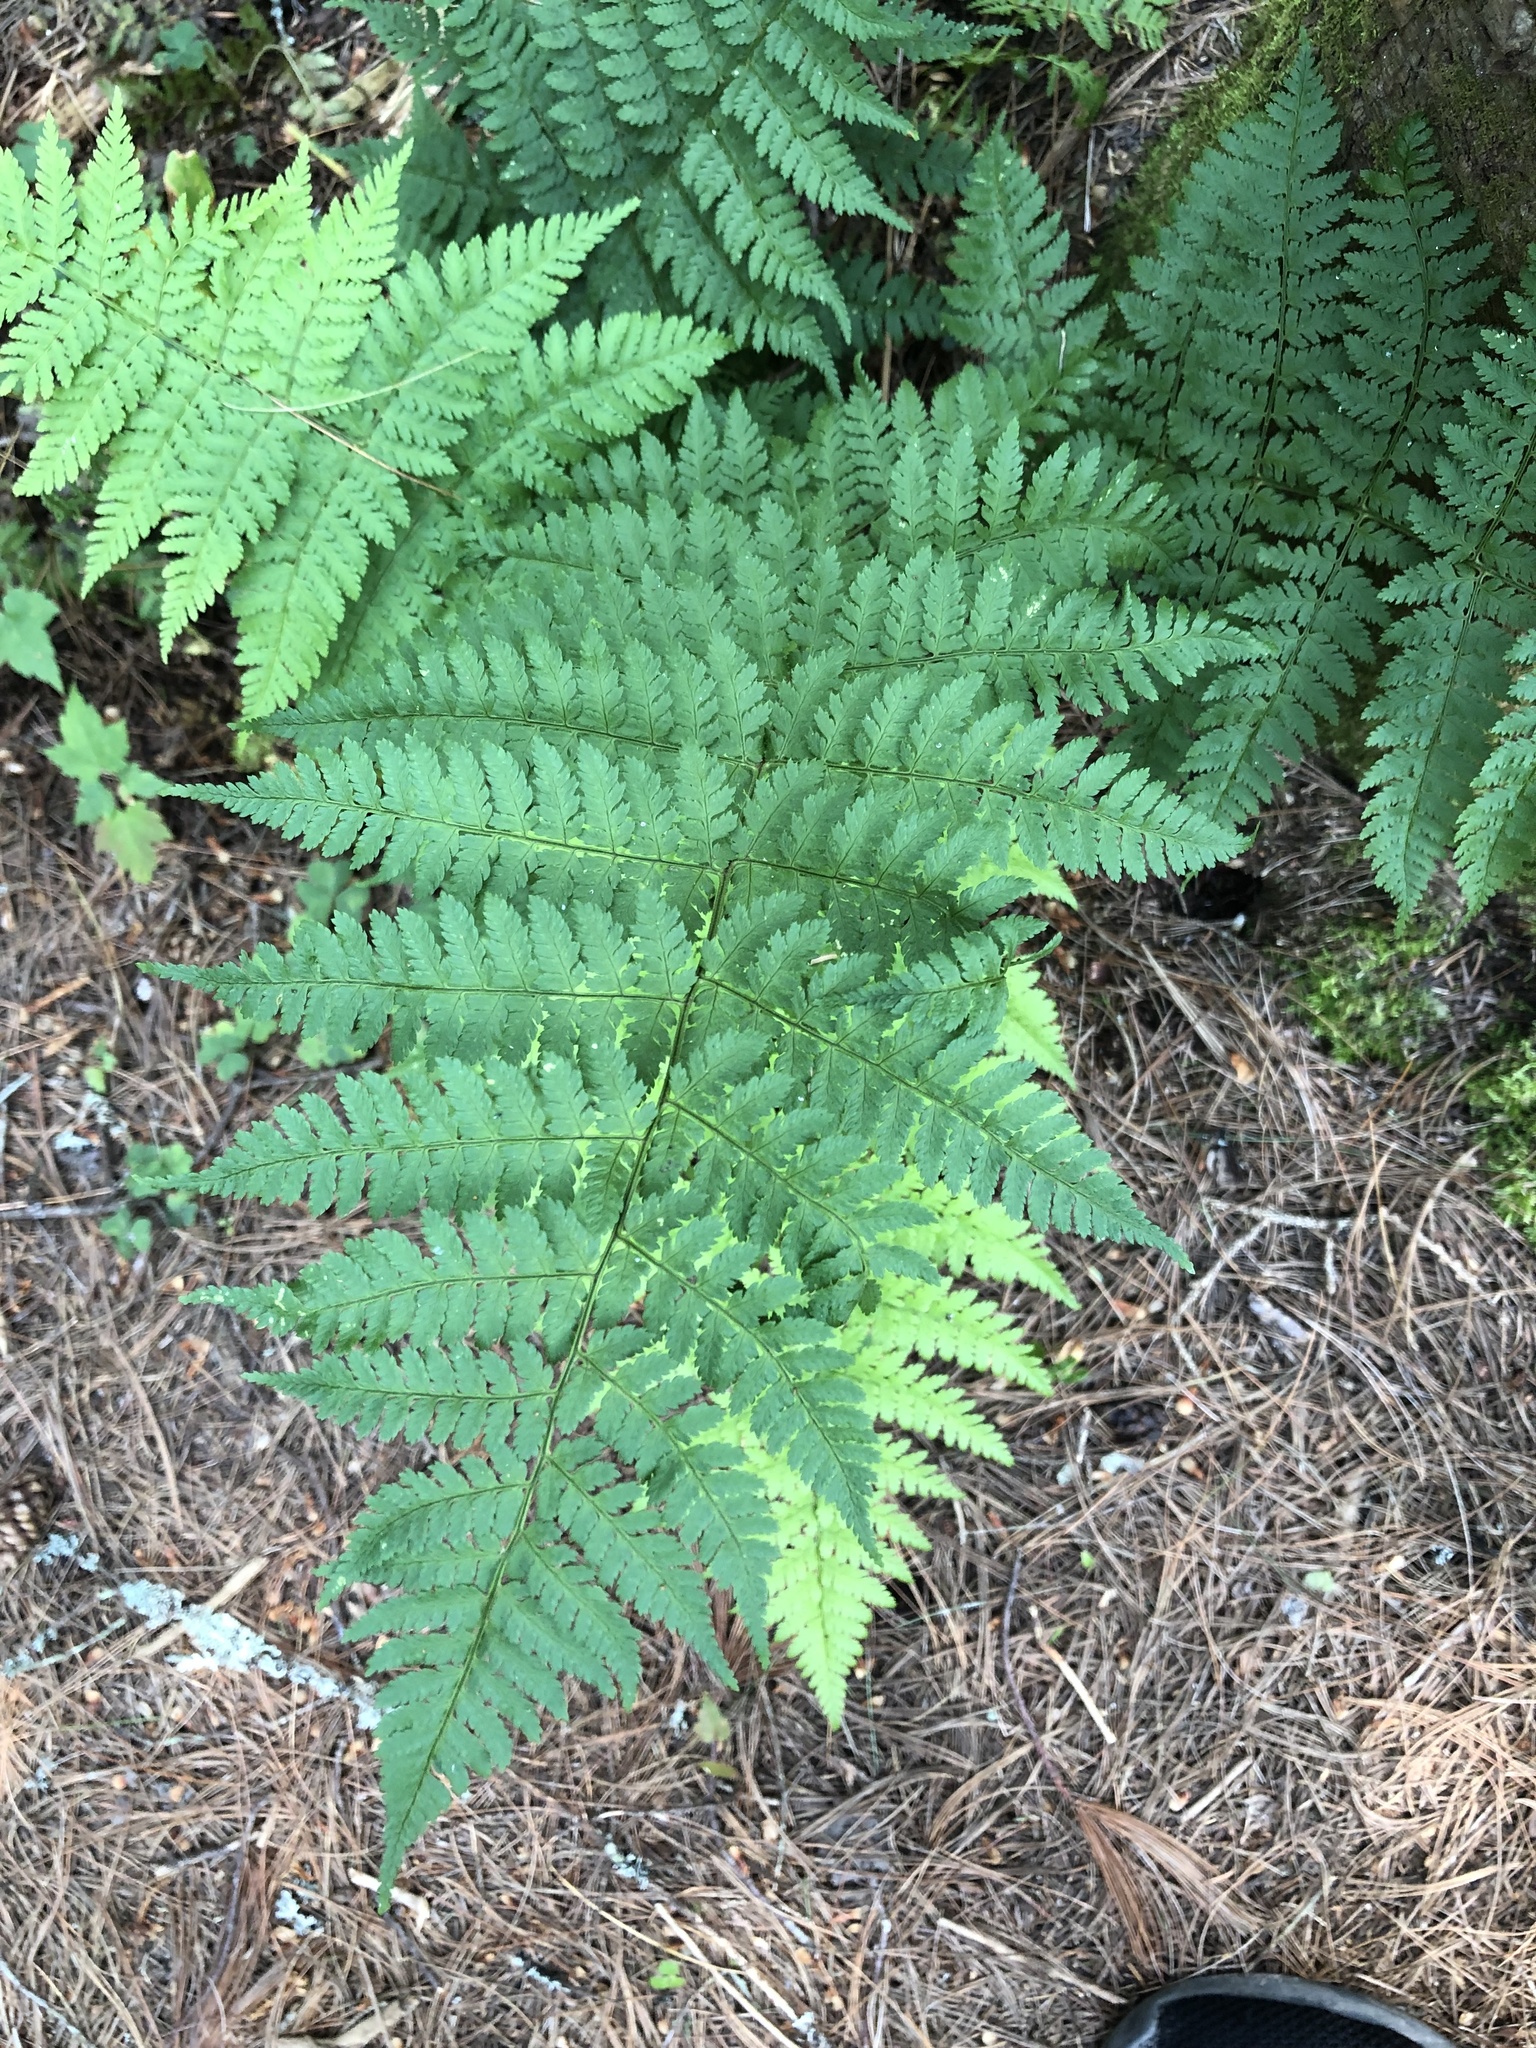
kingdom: Plantae
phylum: Tracheophyta
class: Polypodiopsida
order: Polypodiales
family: Dryopteridaceae
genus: Dryopteris
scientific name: Dryopteris intermedia
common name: Evergreen wood fern
